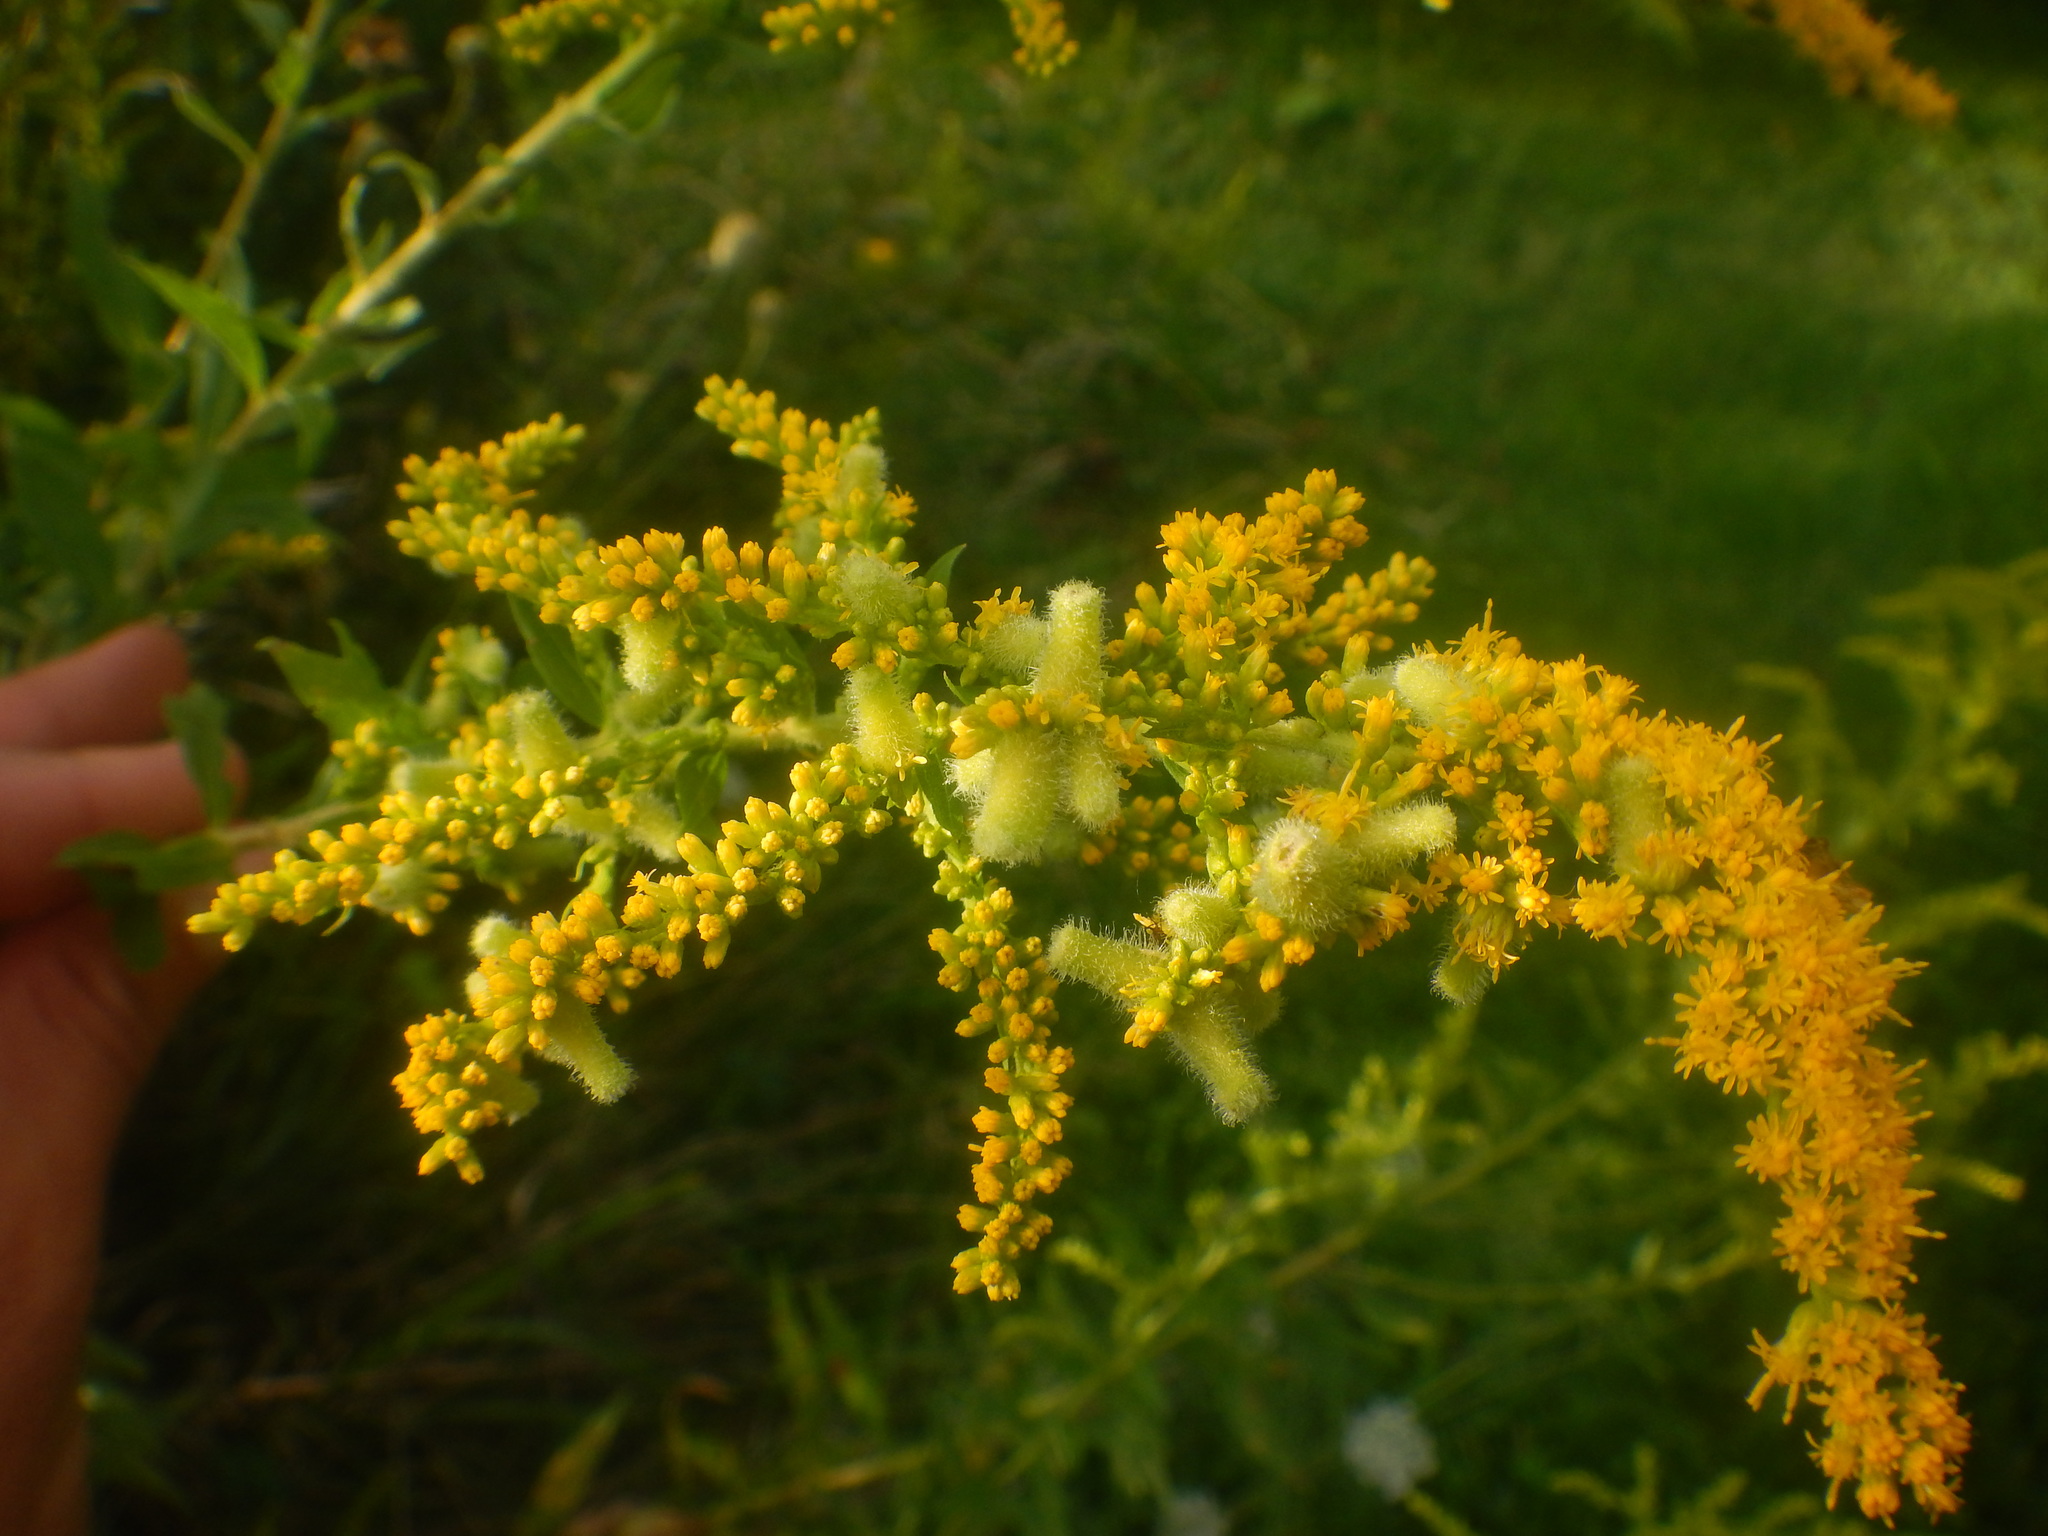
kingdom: Animalia
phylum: Arthropoda
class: Insecta
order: Diptera
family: Cecidomyiidae
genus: Rhopalomyia
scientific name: Rhopalomyia anthophila
